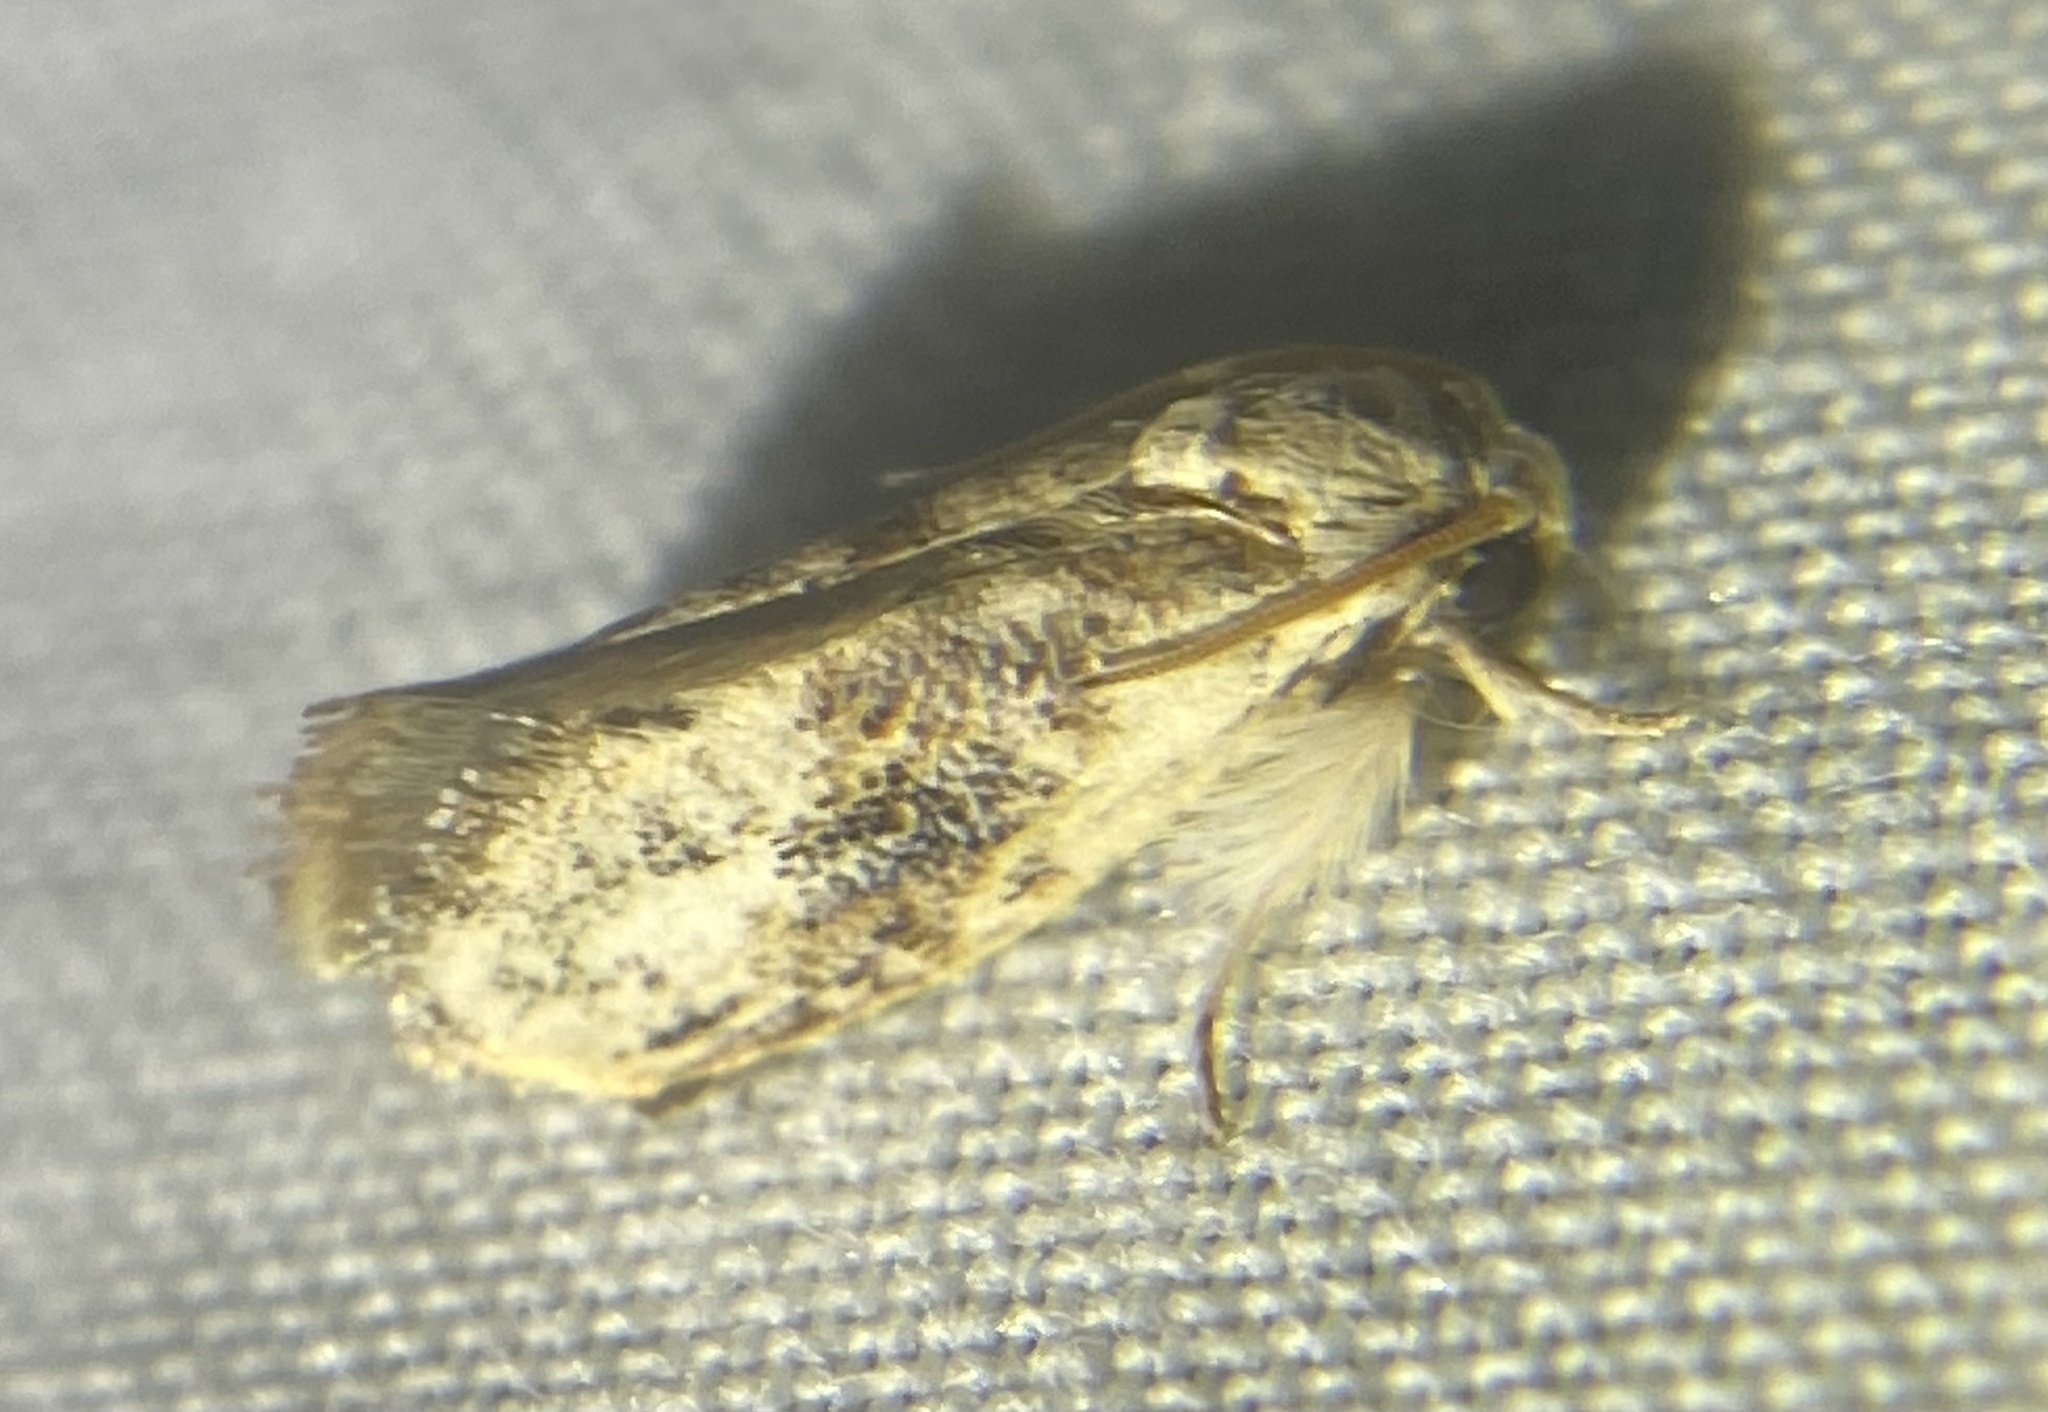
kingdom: Animalia
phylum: Arthropoda
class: Insecta
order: Lepidoptera
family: Tineidae
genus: Acrolophus
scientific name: Acrolophus mycetophagus
